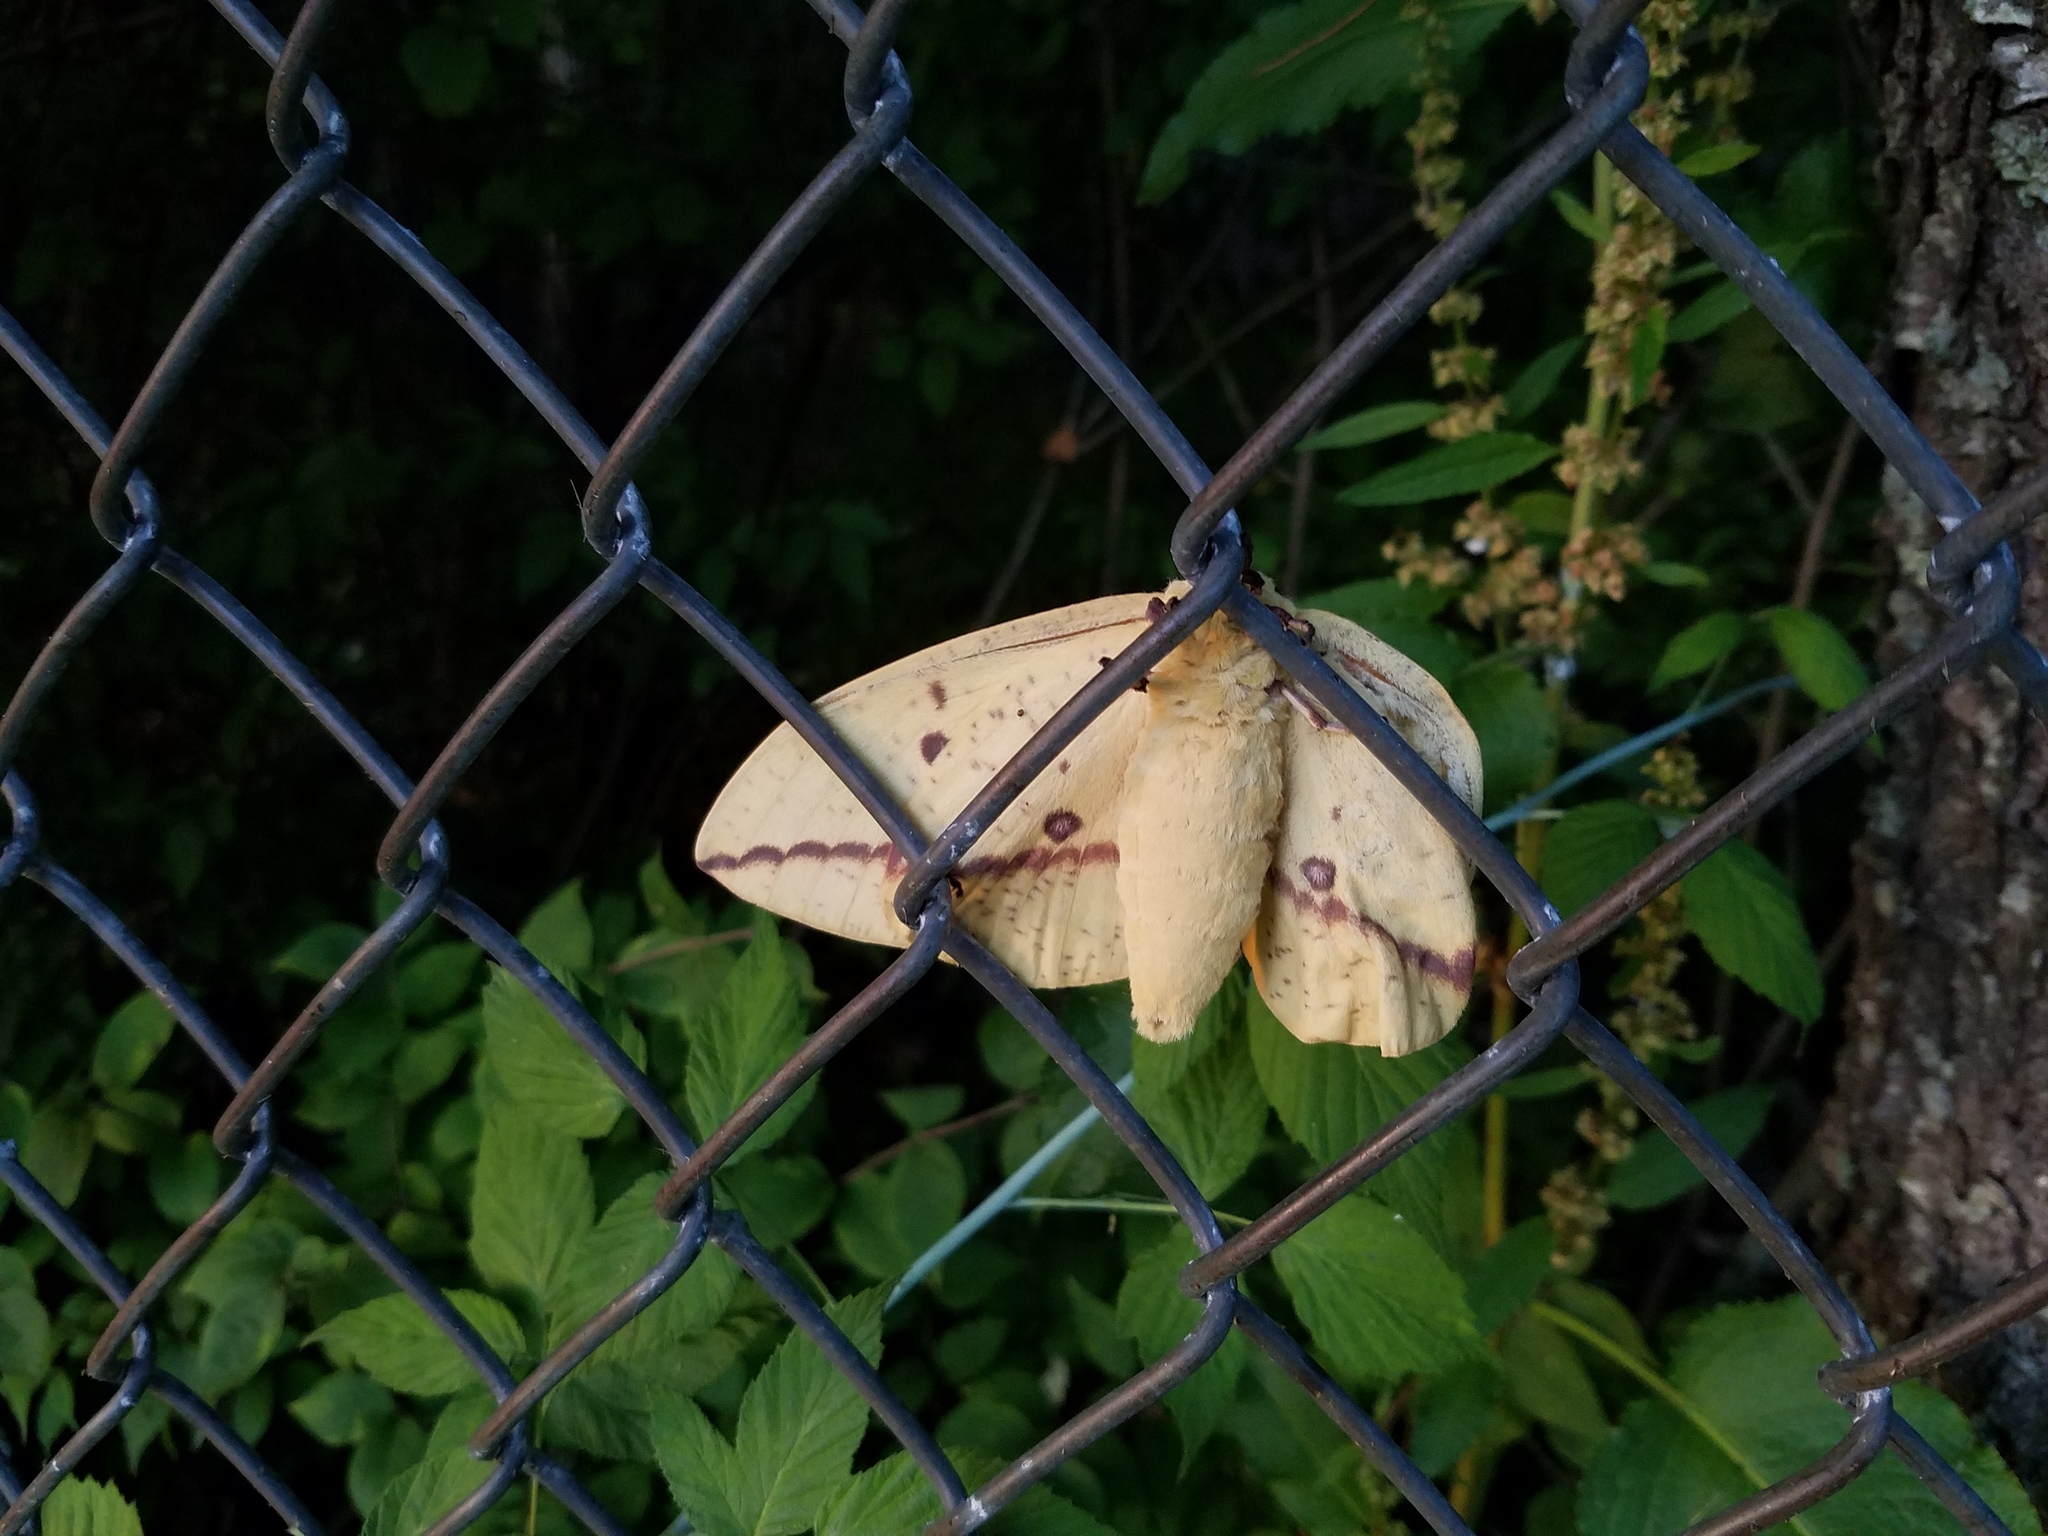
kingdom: Animalia
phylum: Arthropoda
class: Insecta
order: Lepidoptera
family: Saturniidae
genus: Eacles
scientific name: Eacles imperialis
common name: Imperial moth
